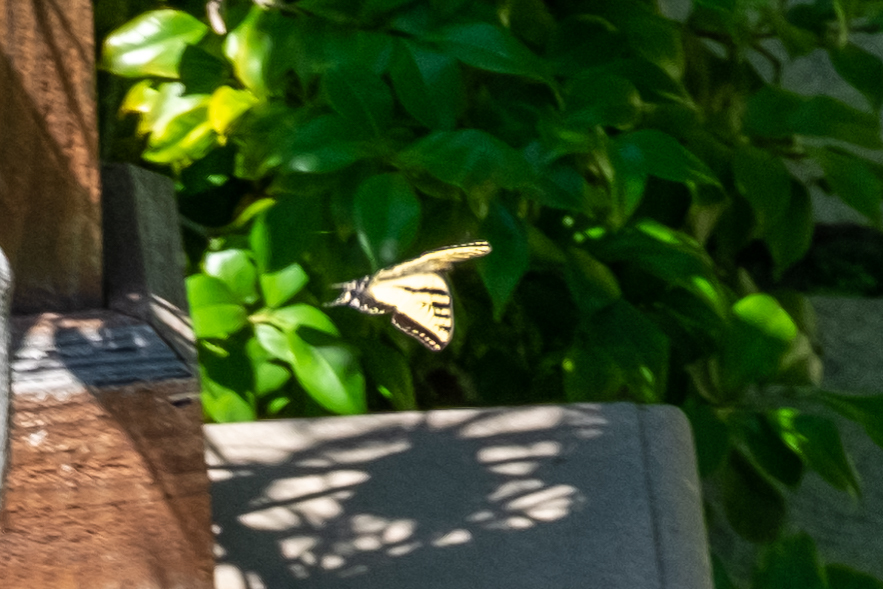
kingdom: Animalia
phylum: Arthropoda
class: Insecta
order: Lepidoptera
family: Papilionidae
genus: Papilio
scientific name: Papilio rutulus
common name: Western tiger swallowtail
